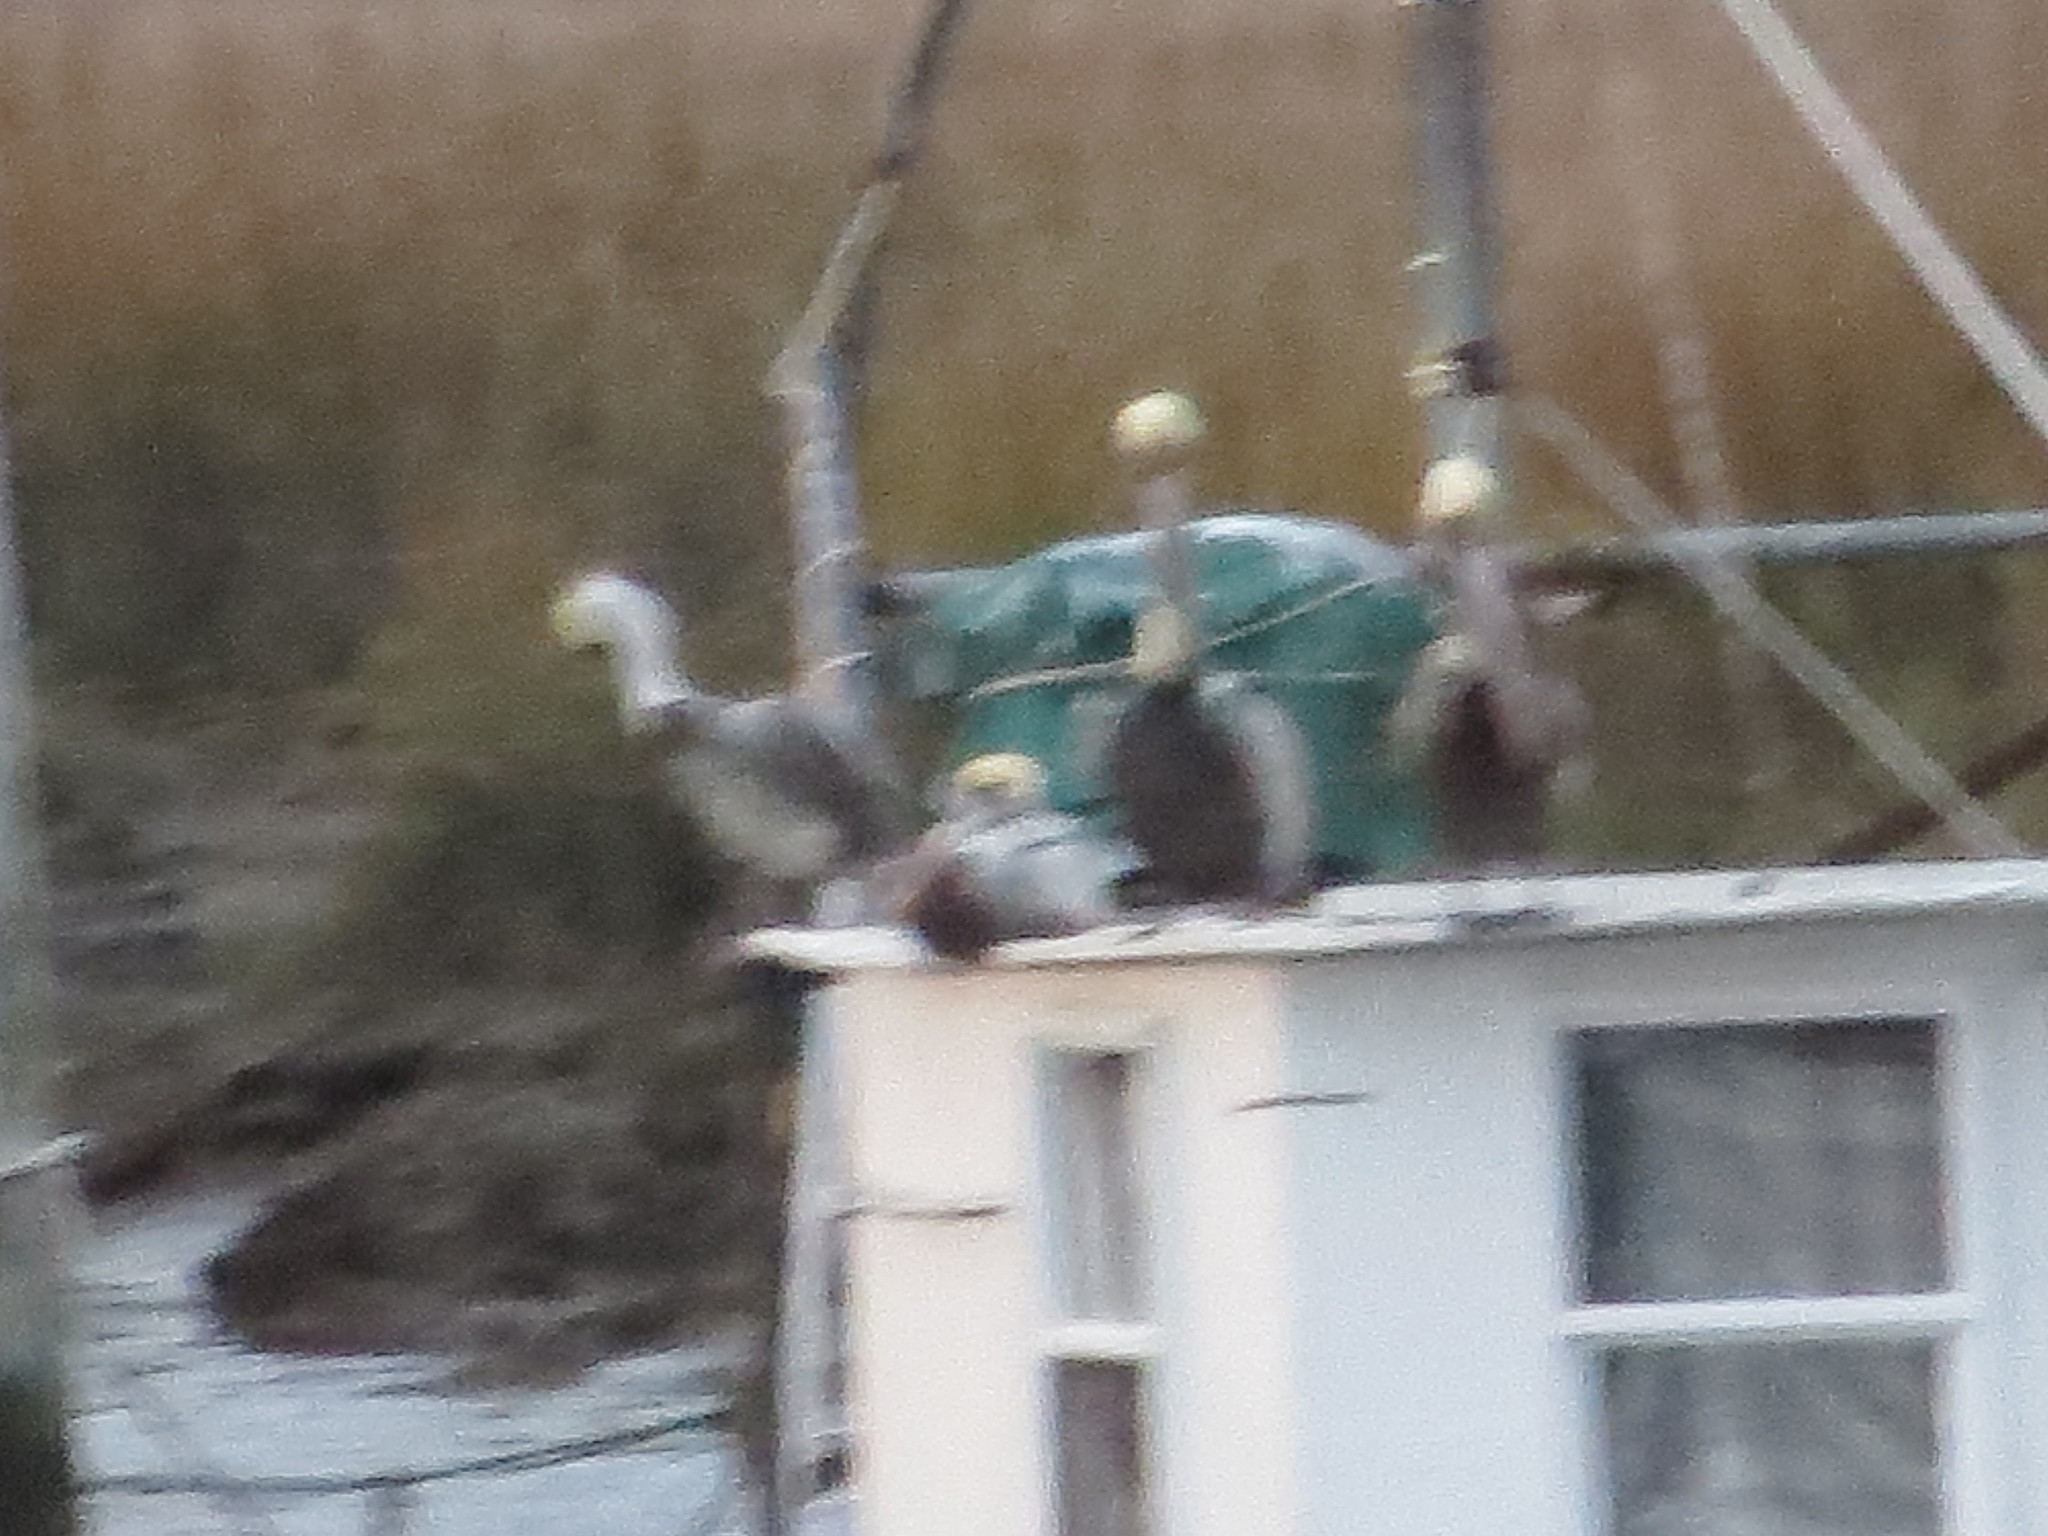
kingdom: Animalia
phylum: Chordata
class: Aves
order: Pelecaniformes
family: Pelecanidae
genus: Pelecanus
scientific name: Pelecanus occidentalis
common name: Brown pelican
